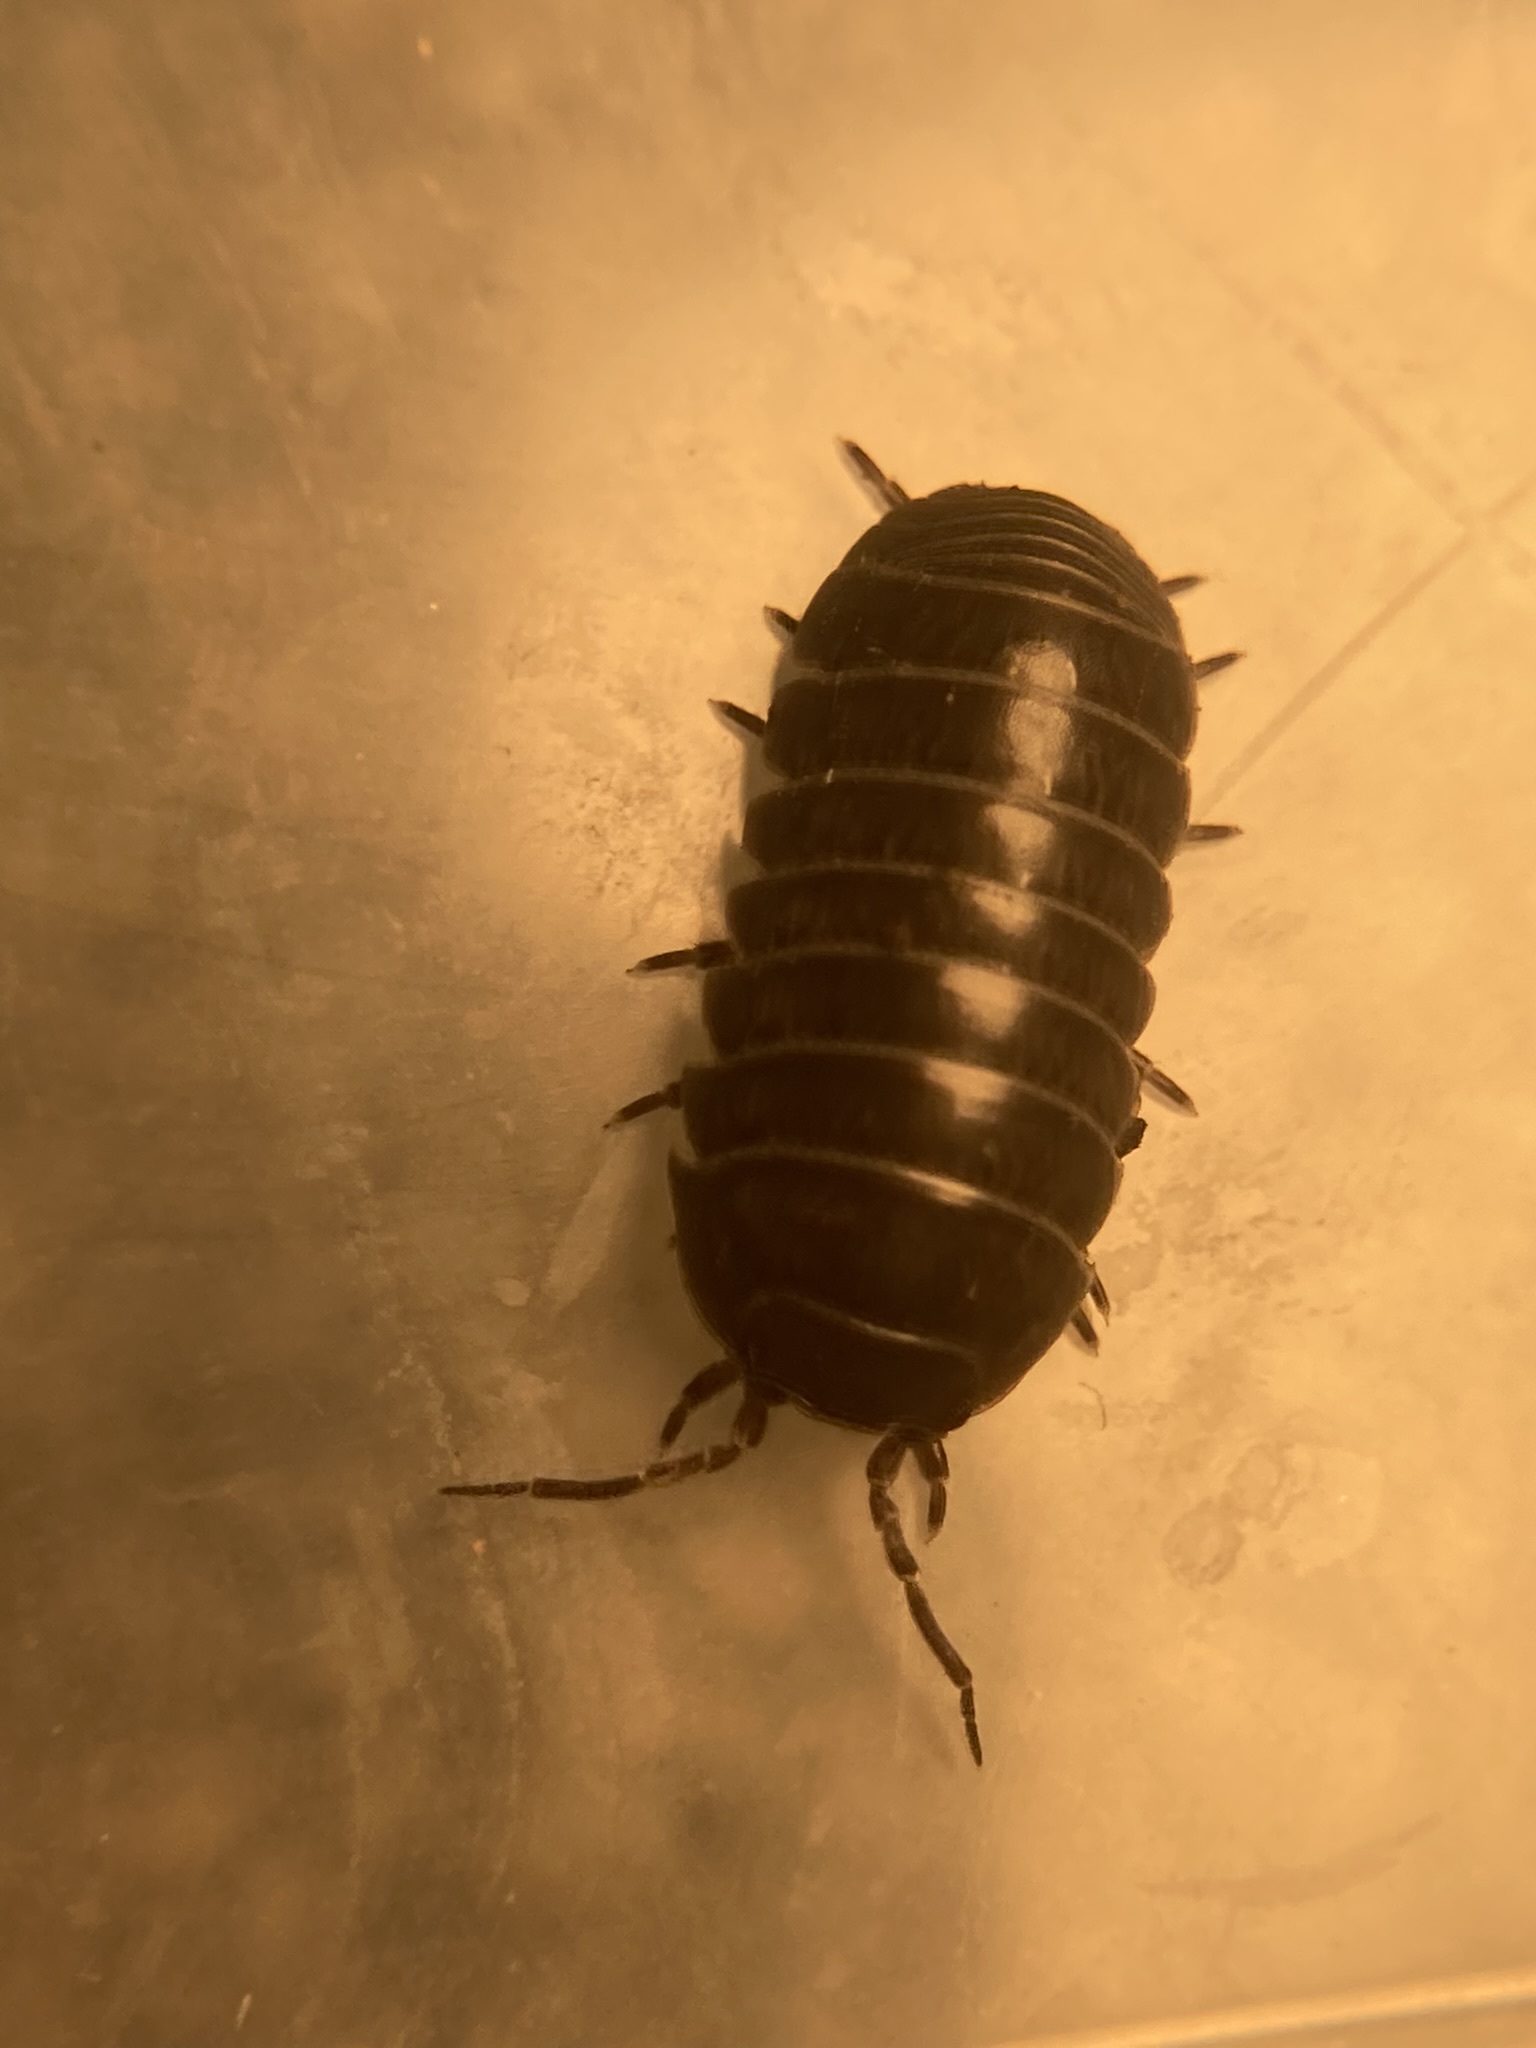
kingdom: Animalia
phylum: Arthropoda
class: Malacostraca
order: Isopoda
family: Armadillidiidae
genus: Armadillidium
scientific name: Armadillidium vulgare
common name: Common pill woodlouse
